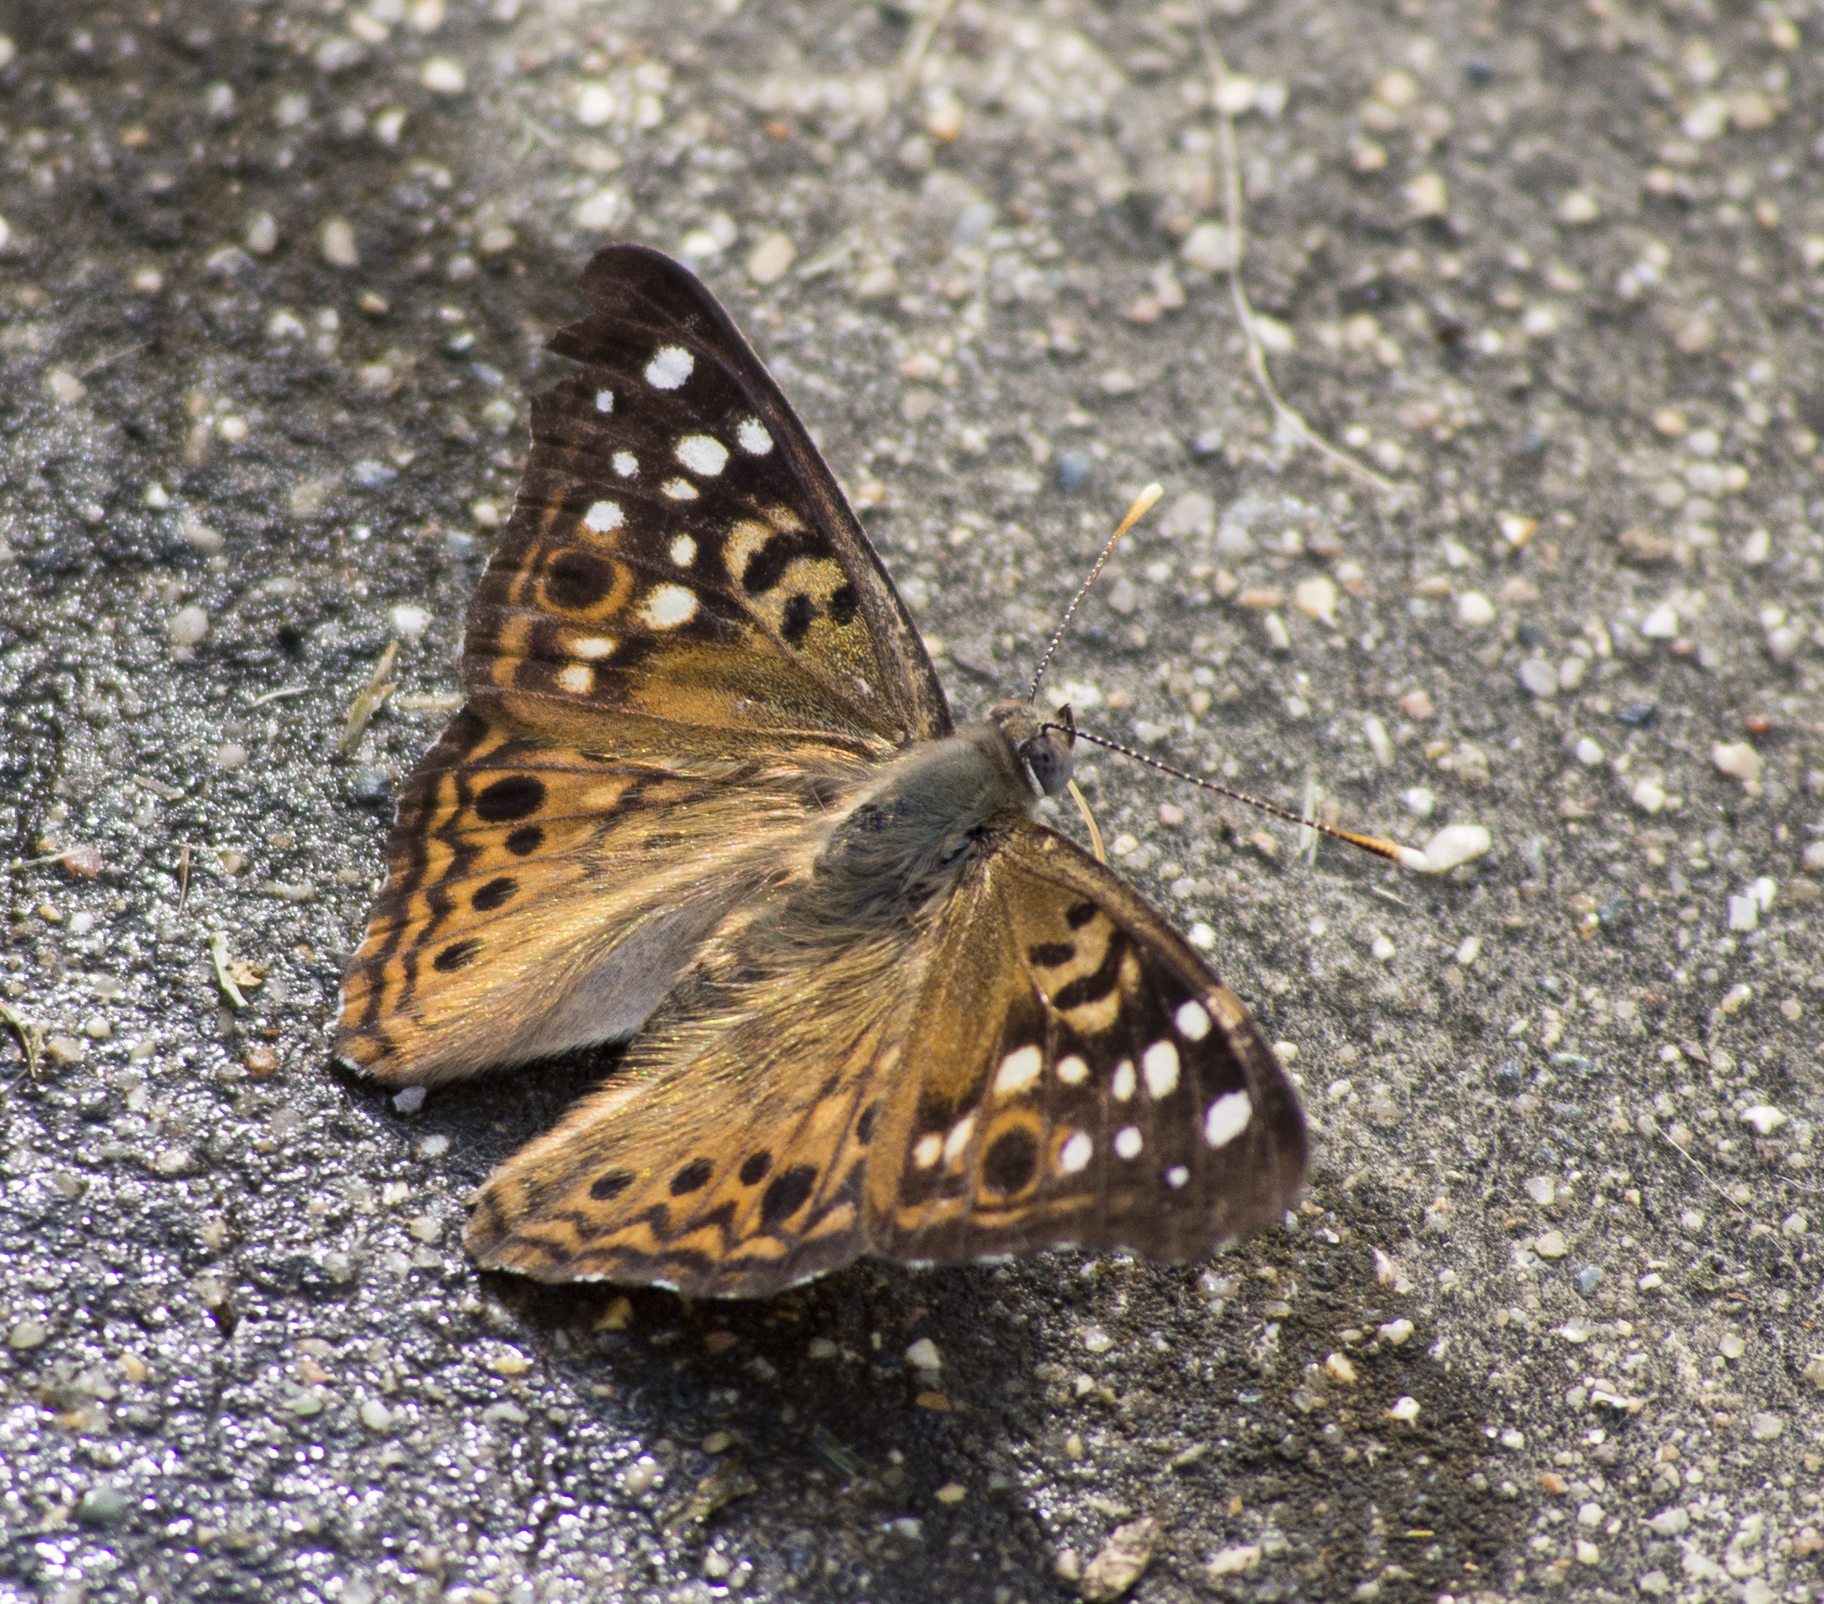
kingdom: Animalia
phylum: Arthropoda
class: Insecta
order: Lepidoptera
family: Nymphalidae
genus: Asterocampa
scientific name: Asterocampa celtis
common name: Hackberry emperor
